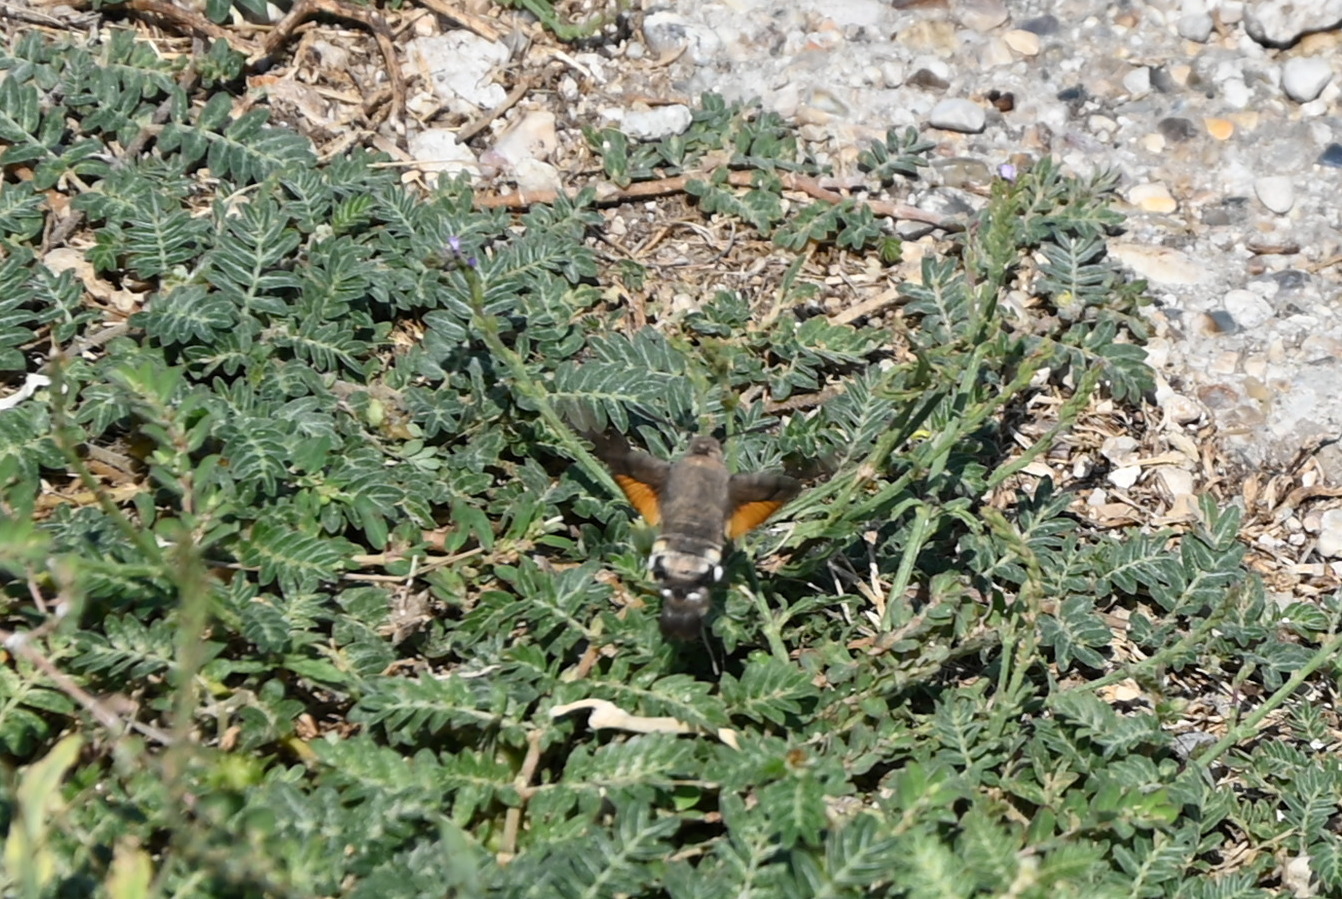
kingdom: Animalia
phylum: Arthropoda
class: Insecta
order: Lepidoptera
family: Sphingidae
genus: Macroglossum
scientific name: Macroglossum stellatarum
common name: Humming-bird hawk-moth
